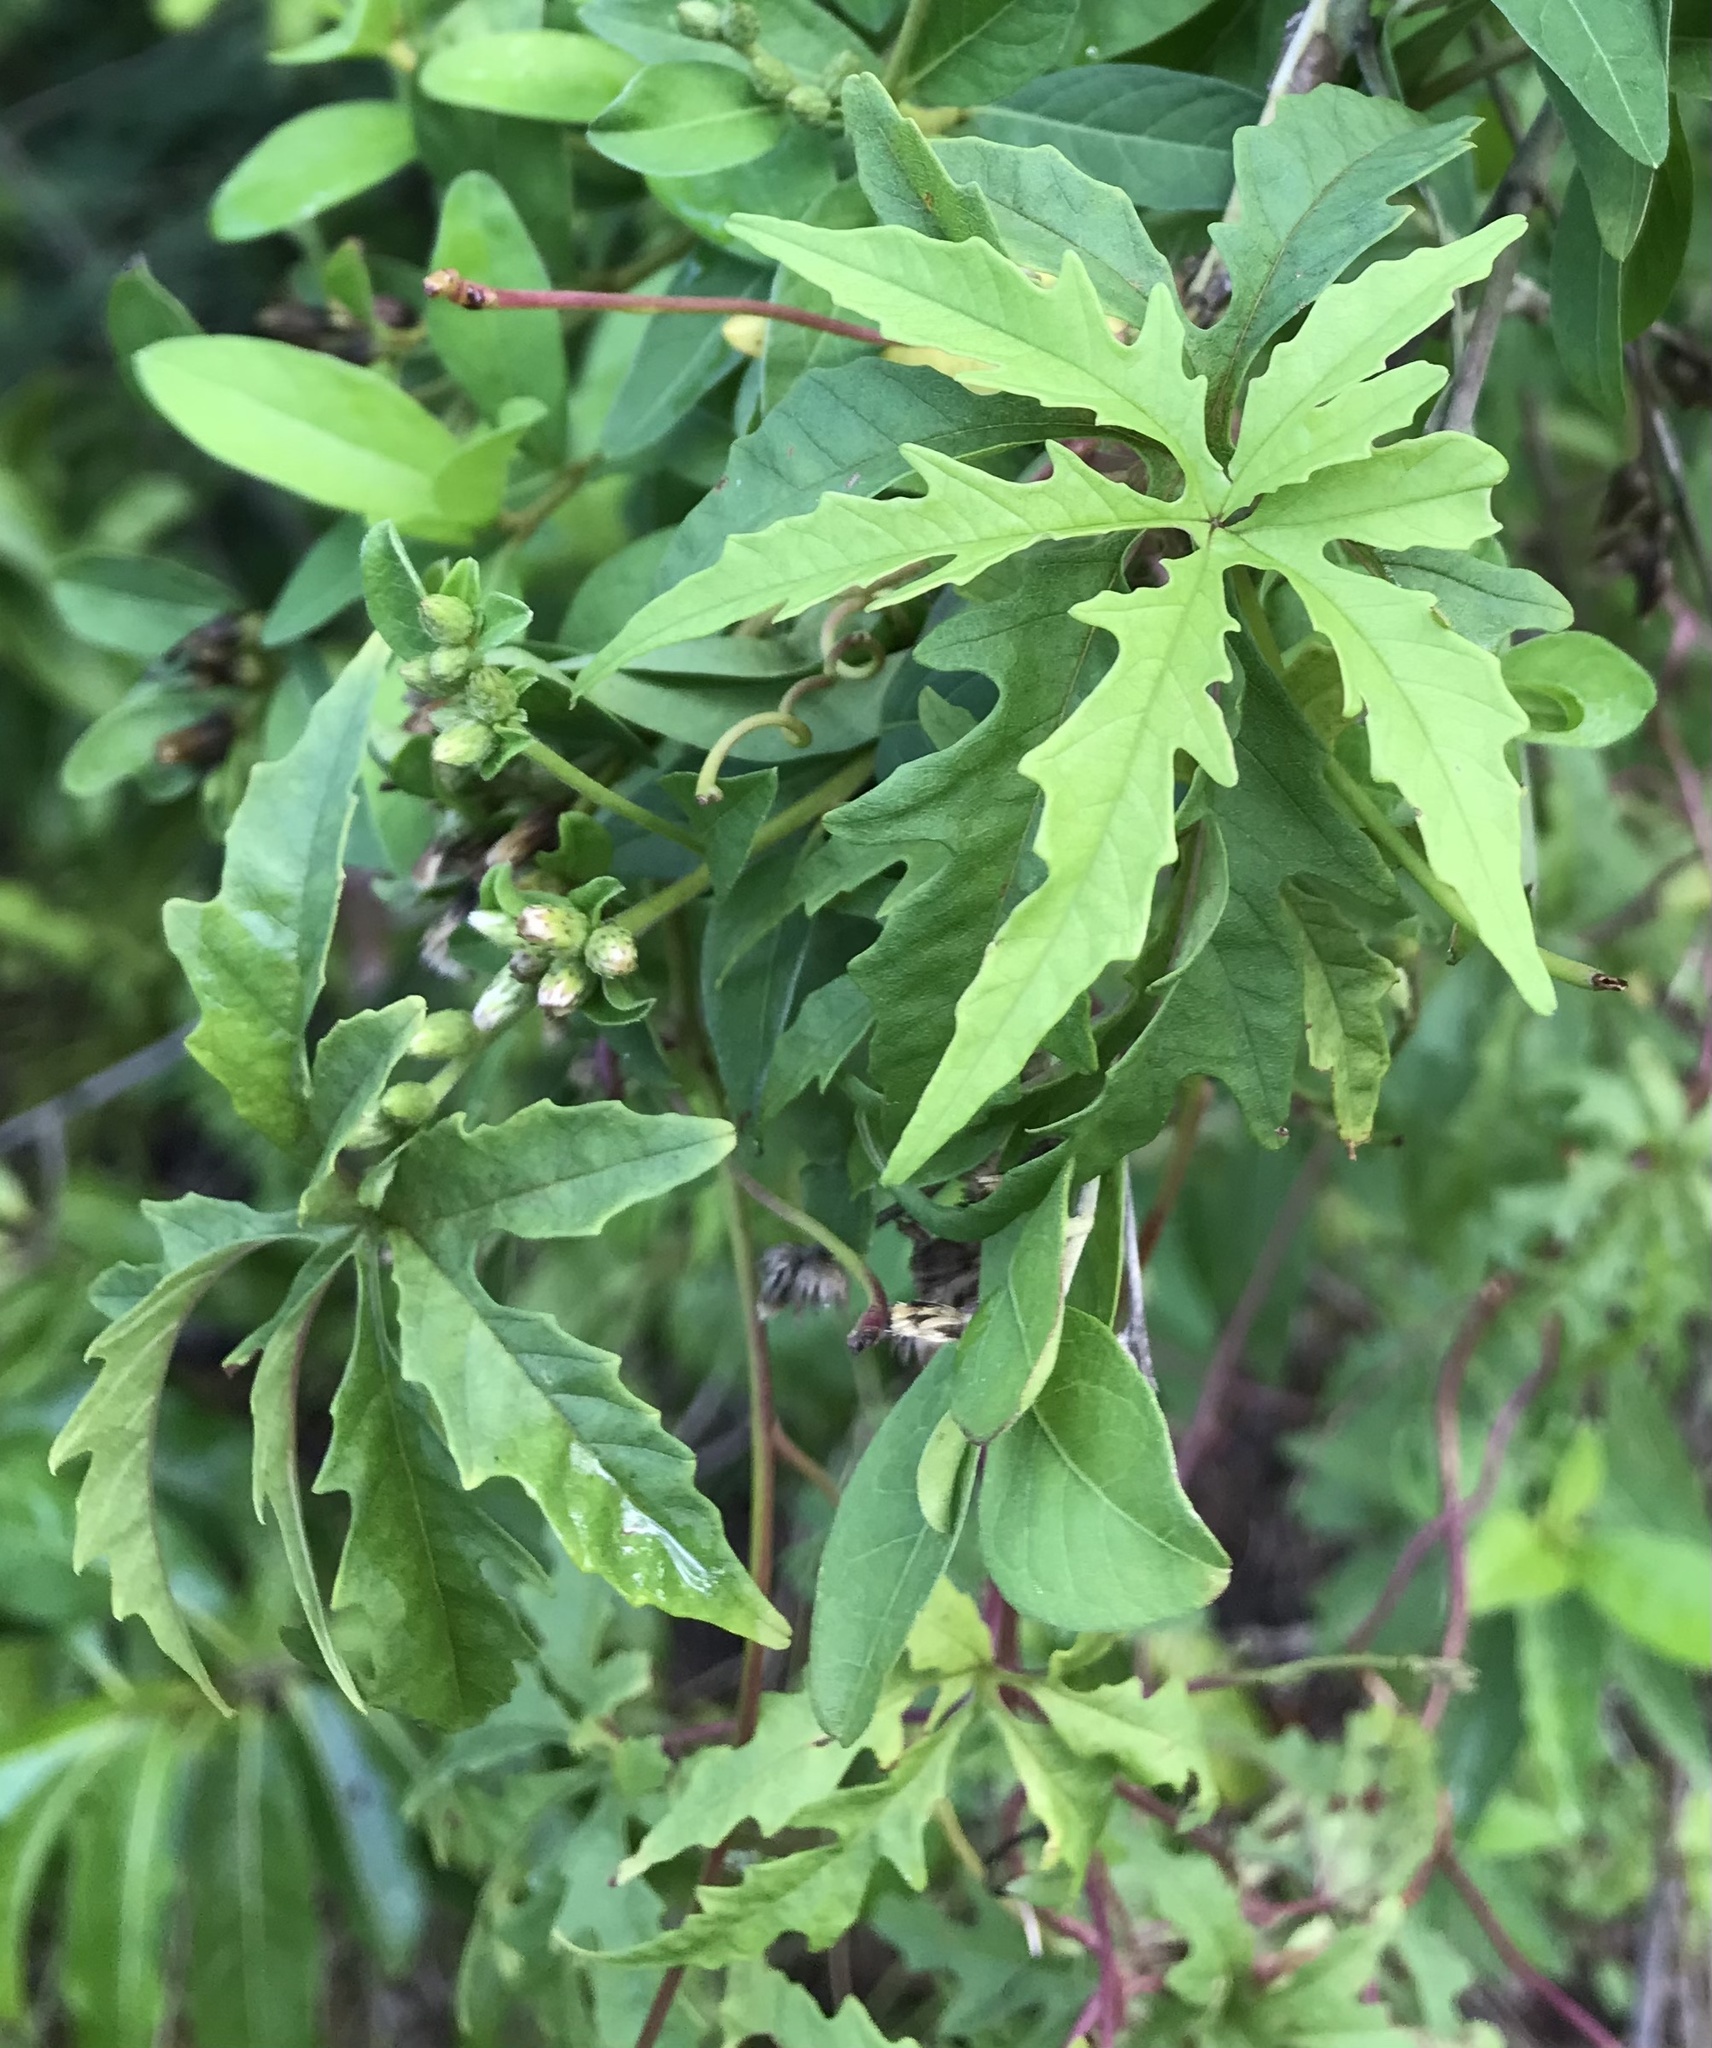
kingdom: Plantae
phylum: Tracheophyta
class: Magnoliopsida
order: Solanales
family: Convolvulaceae
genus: Distimake
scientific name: Distimake dissectus
